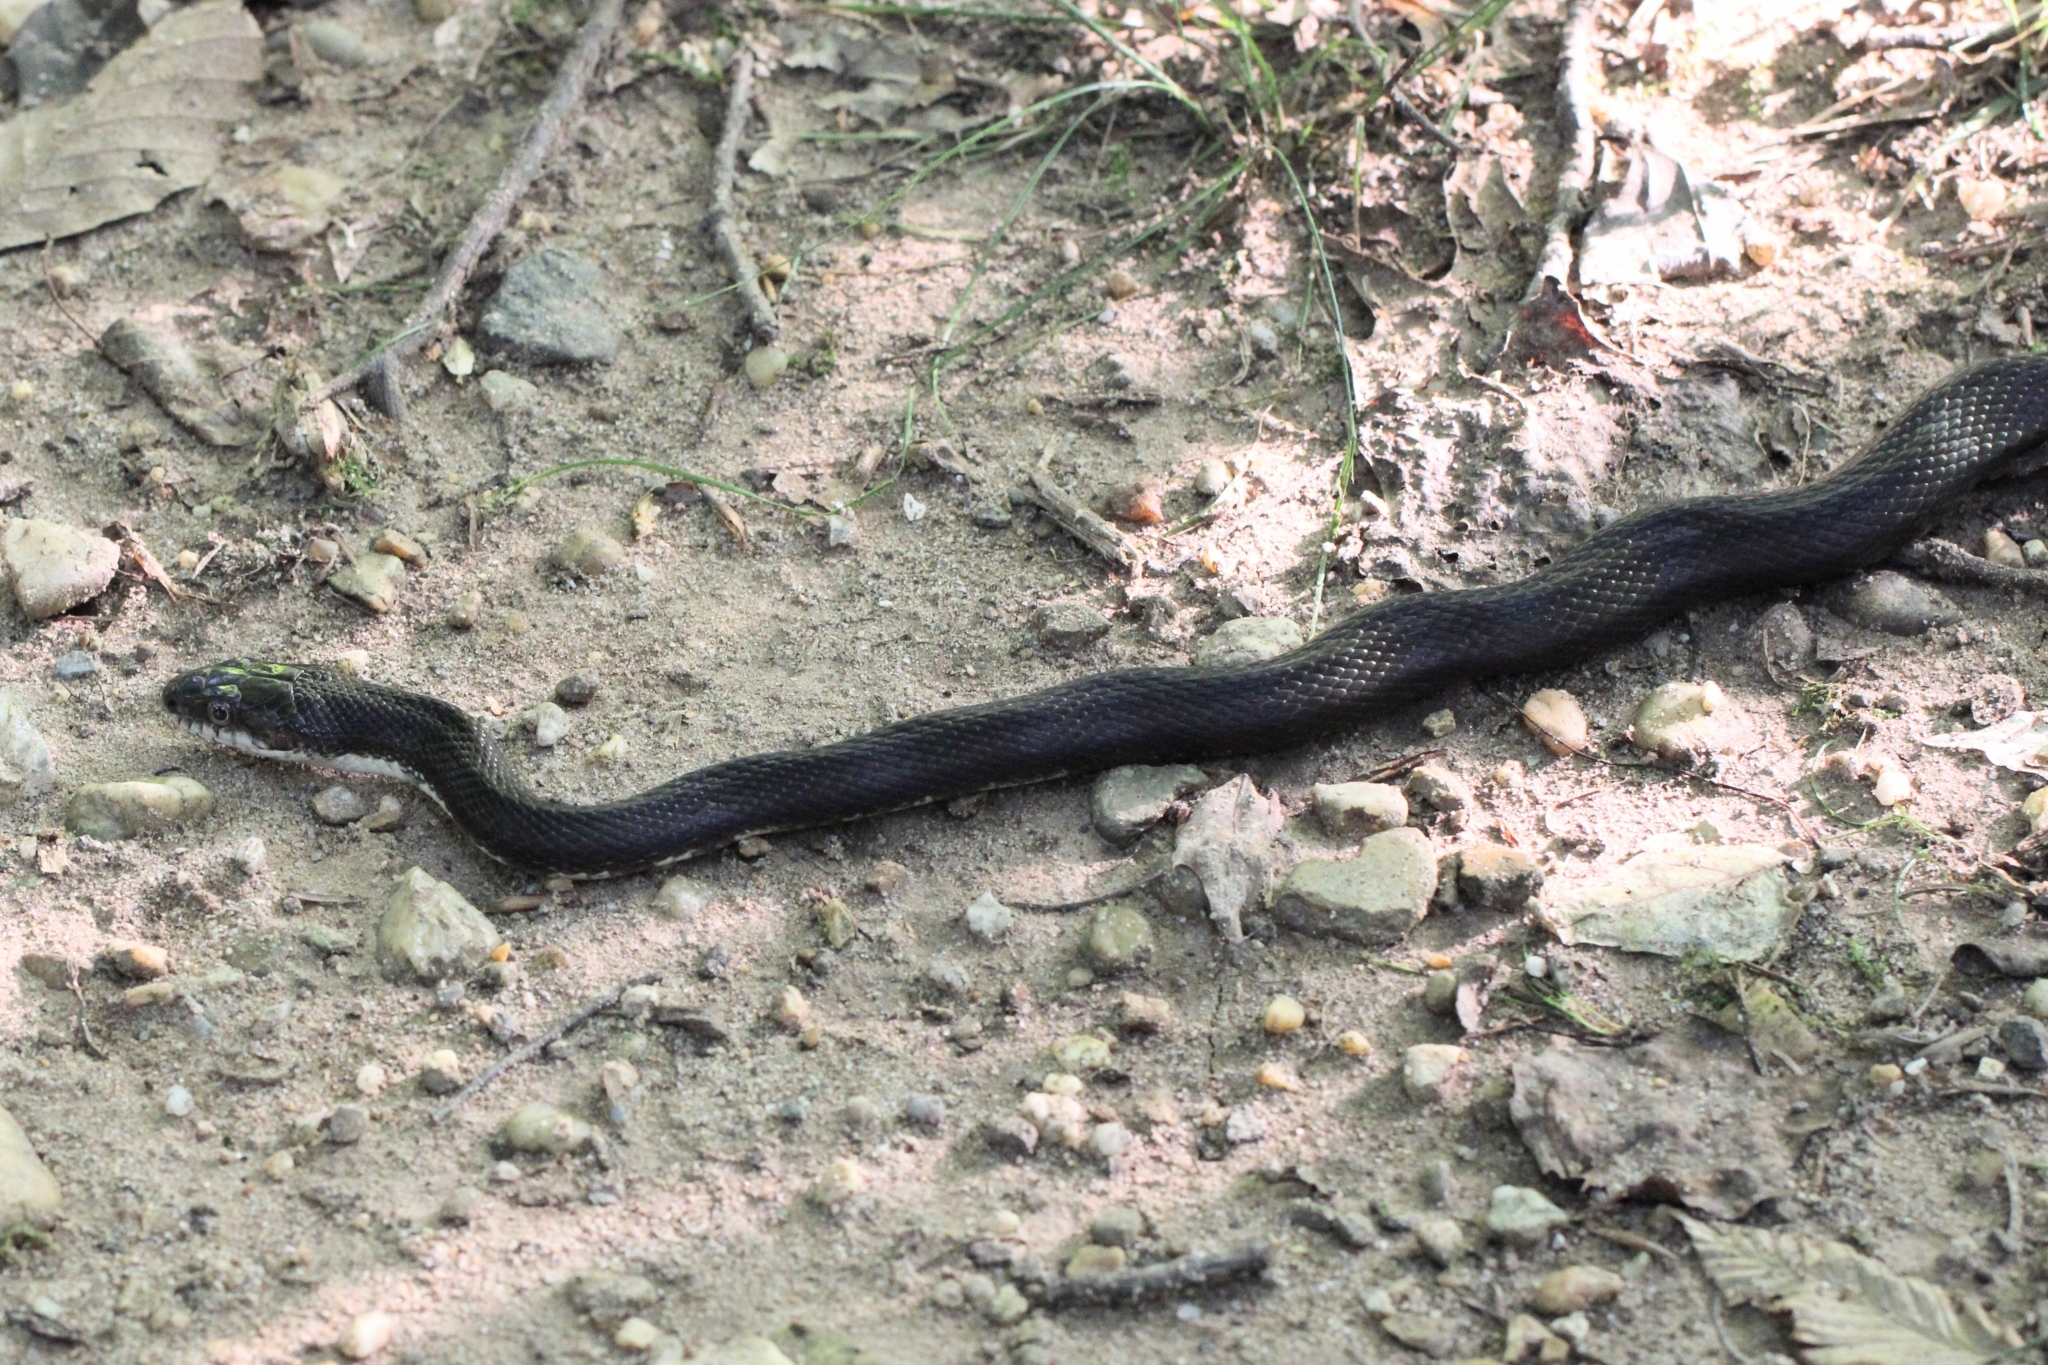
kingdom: Animalia
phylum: Chordata
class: Squamata
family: Colubridae
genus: Pantherophis
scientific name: Pantherophis alleghaniensis
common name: Eastern rat snake
